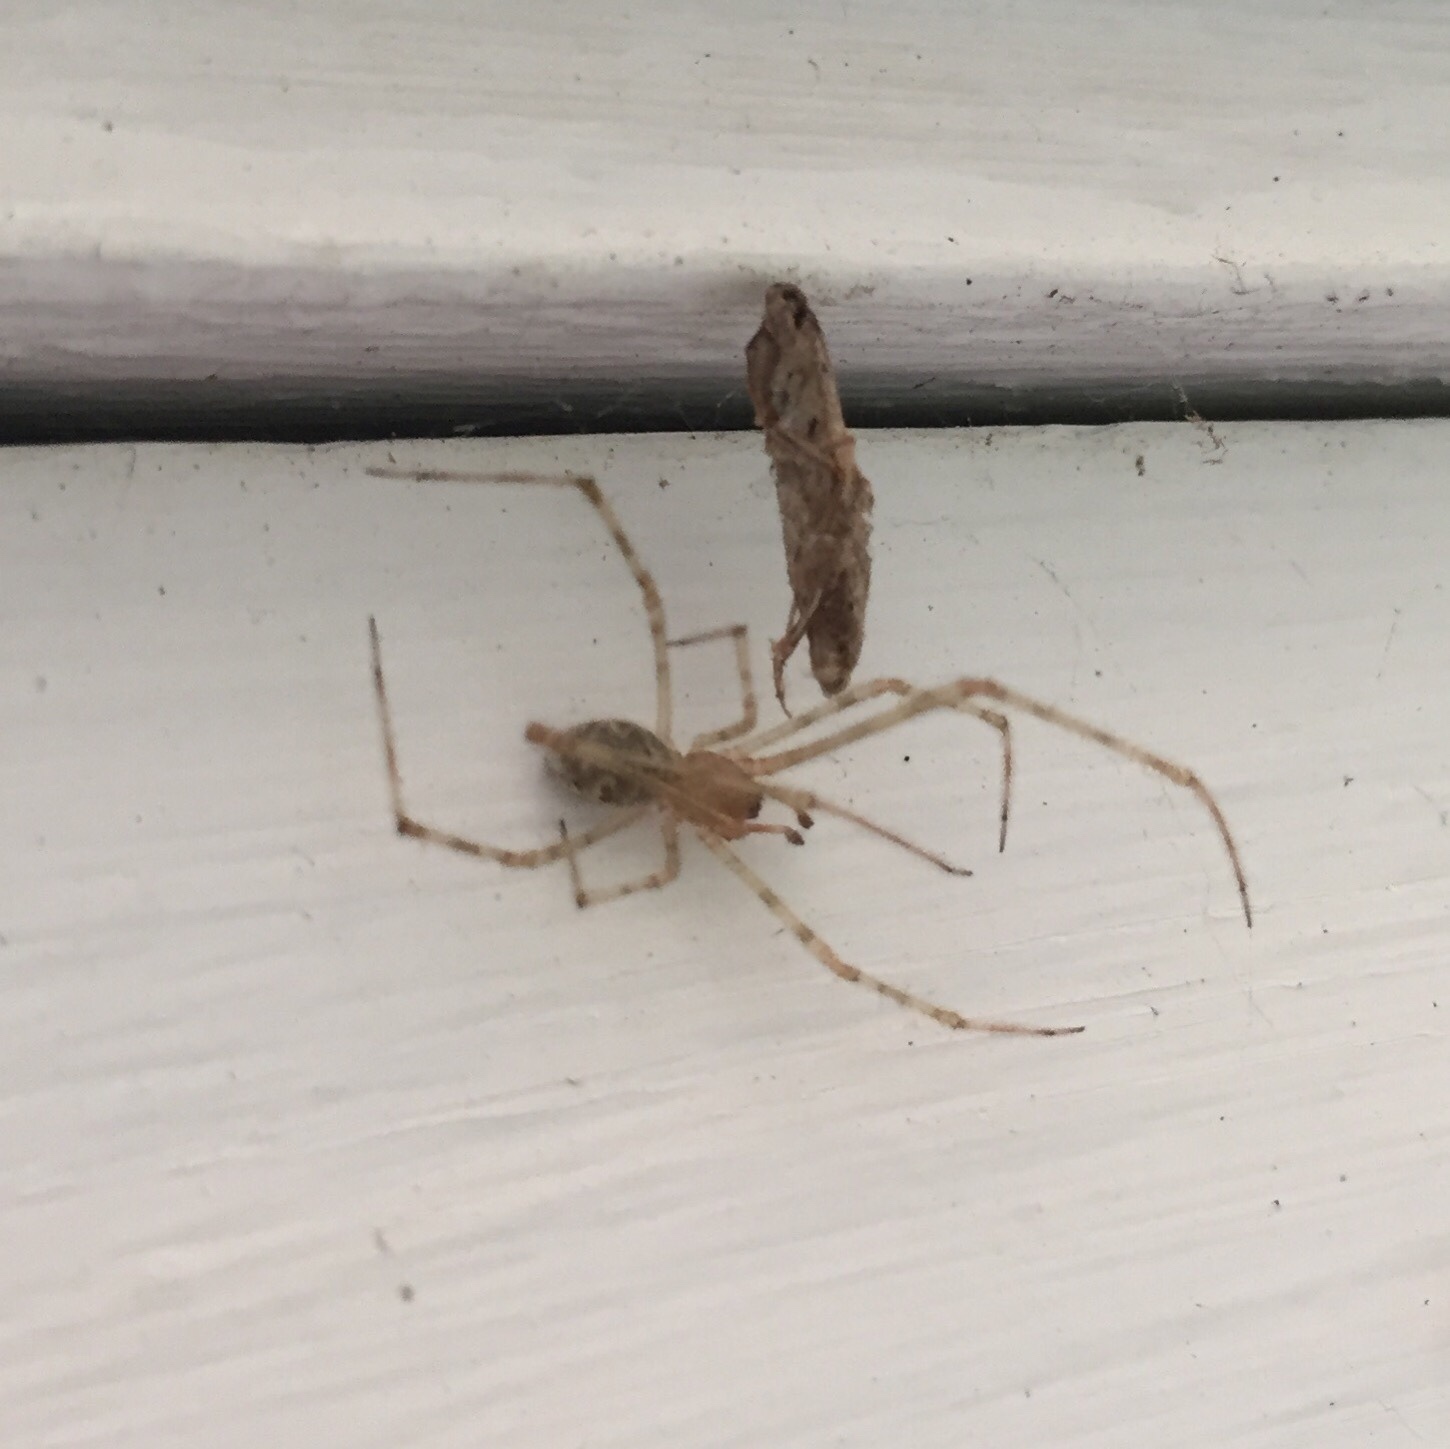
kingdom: Animalia
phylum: Arthropoda
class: Arachnida
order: Araneae
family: Theridiidae
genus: Cryptachaea
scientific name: Cryptachaea gigantipes
